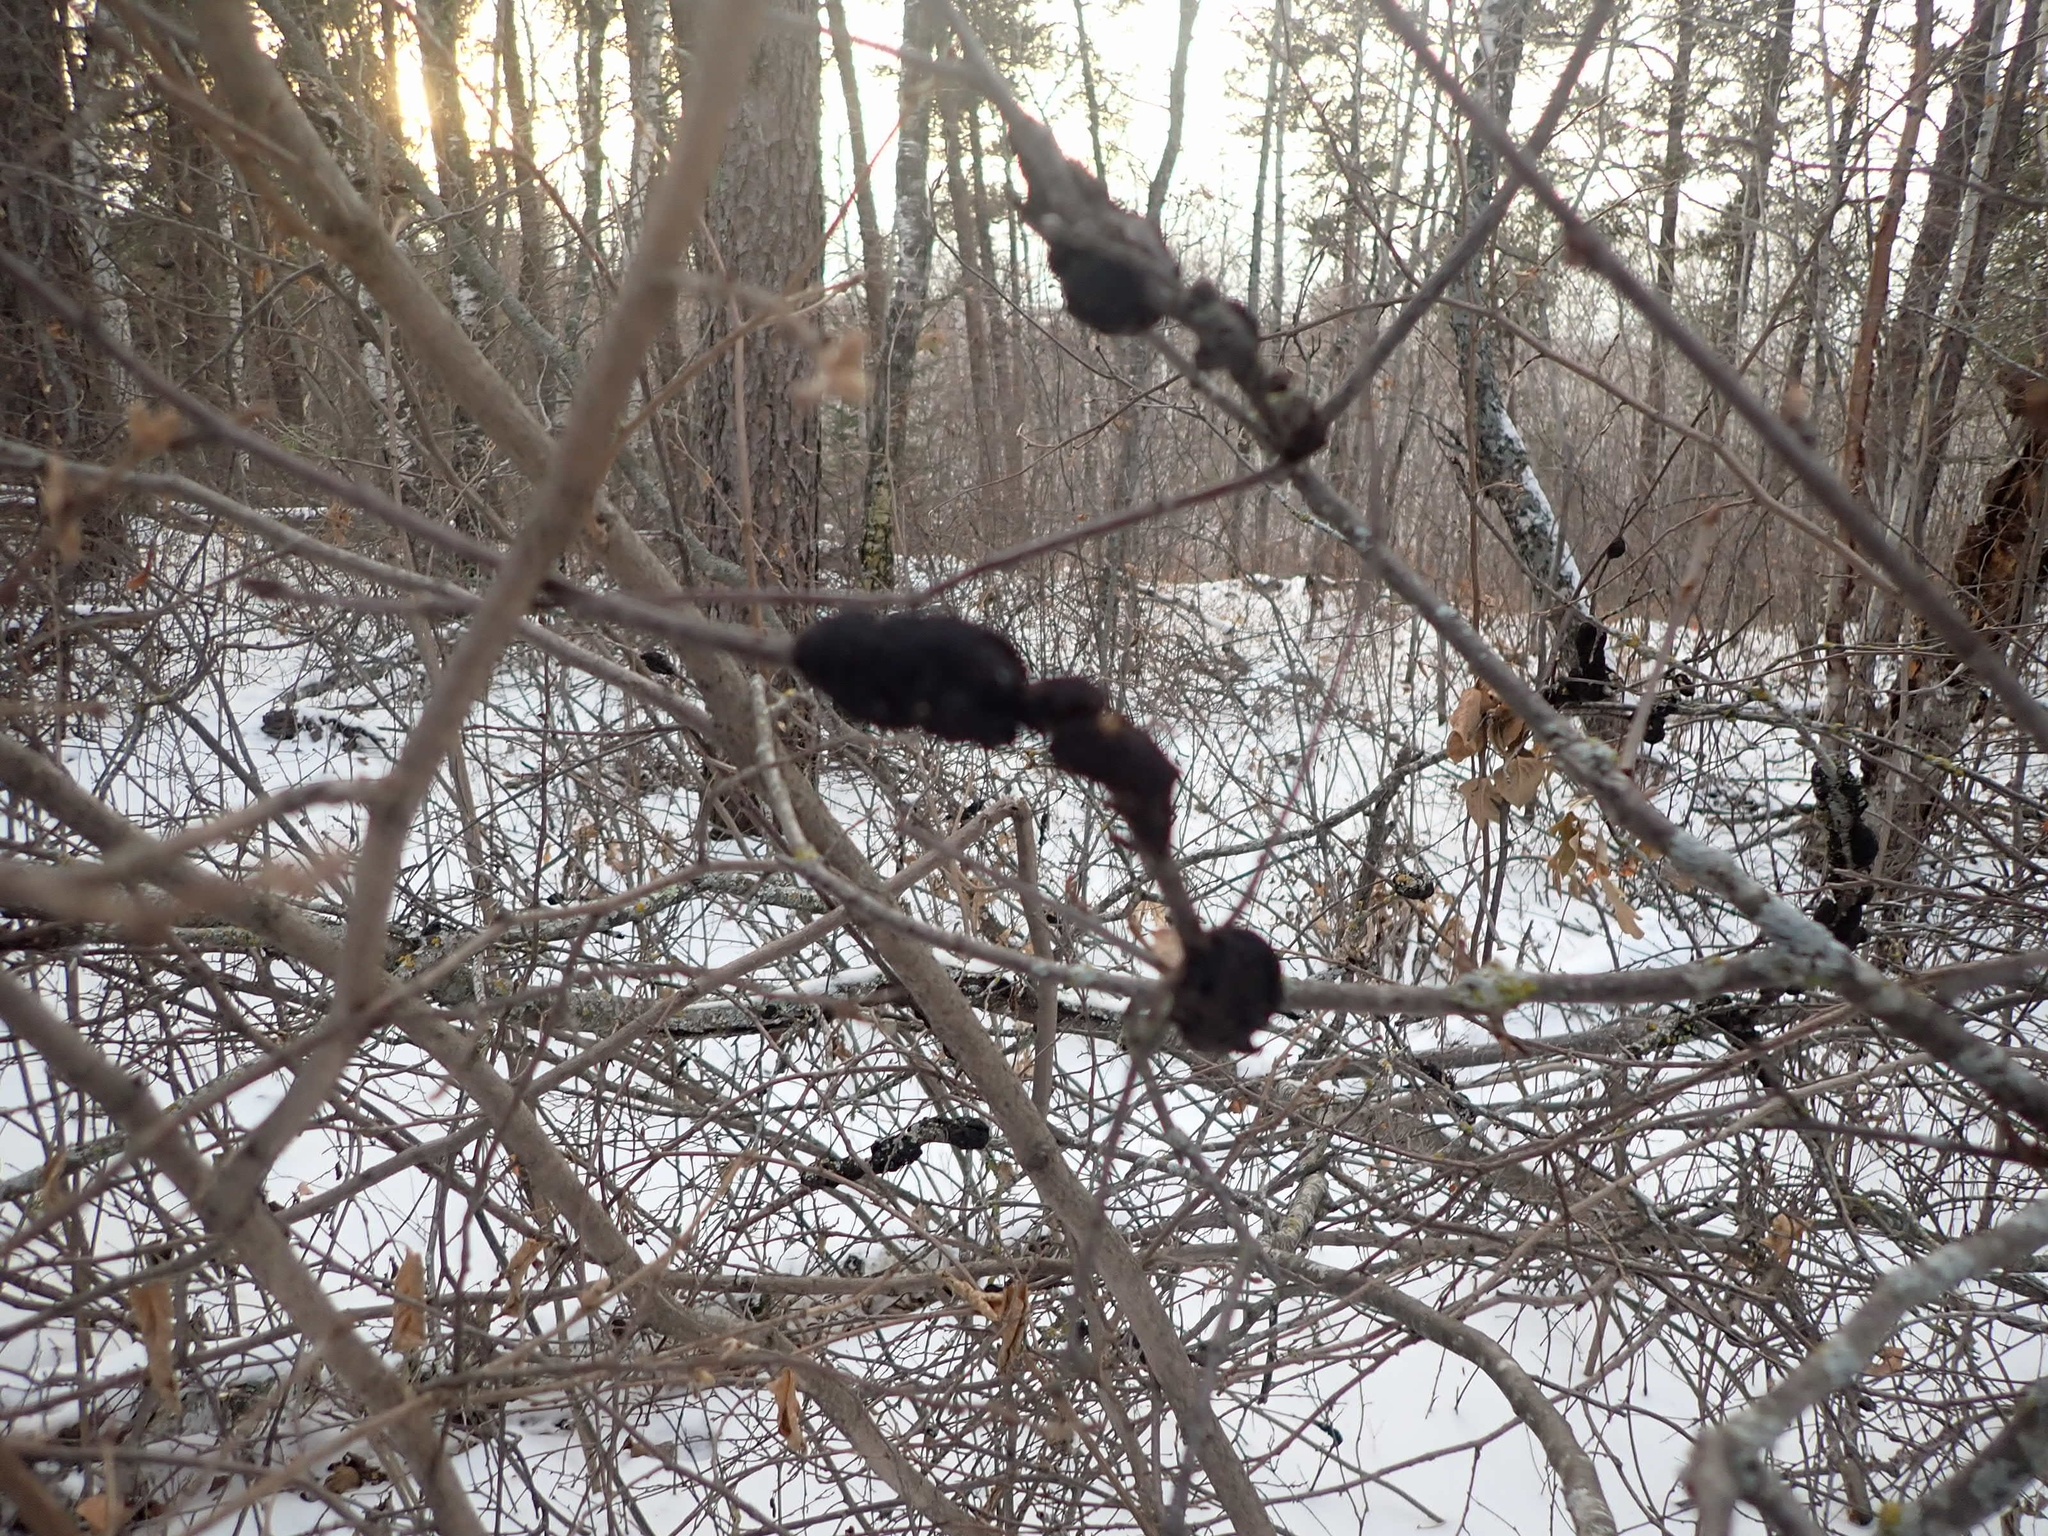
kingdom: Fungi
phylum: Ascomycota
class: Dothideomycetes
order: Venturiales
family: Venturiaceae
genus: Apiosporina
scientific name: Apiosporina morbosa
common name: Black knot
